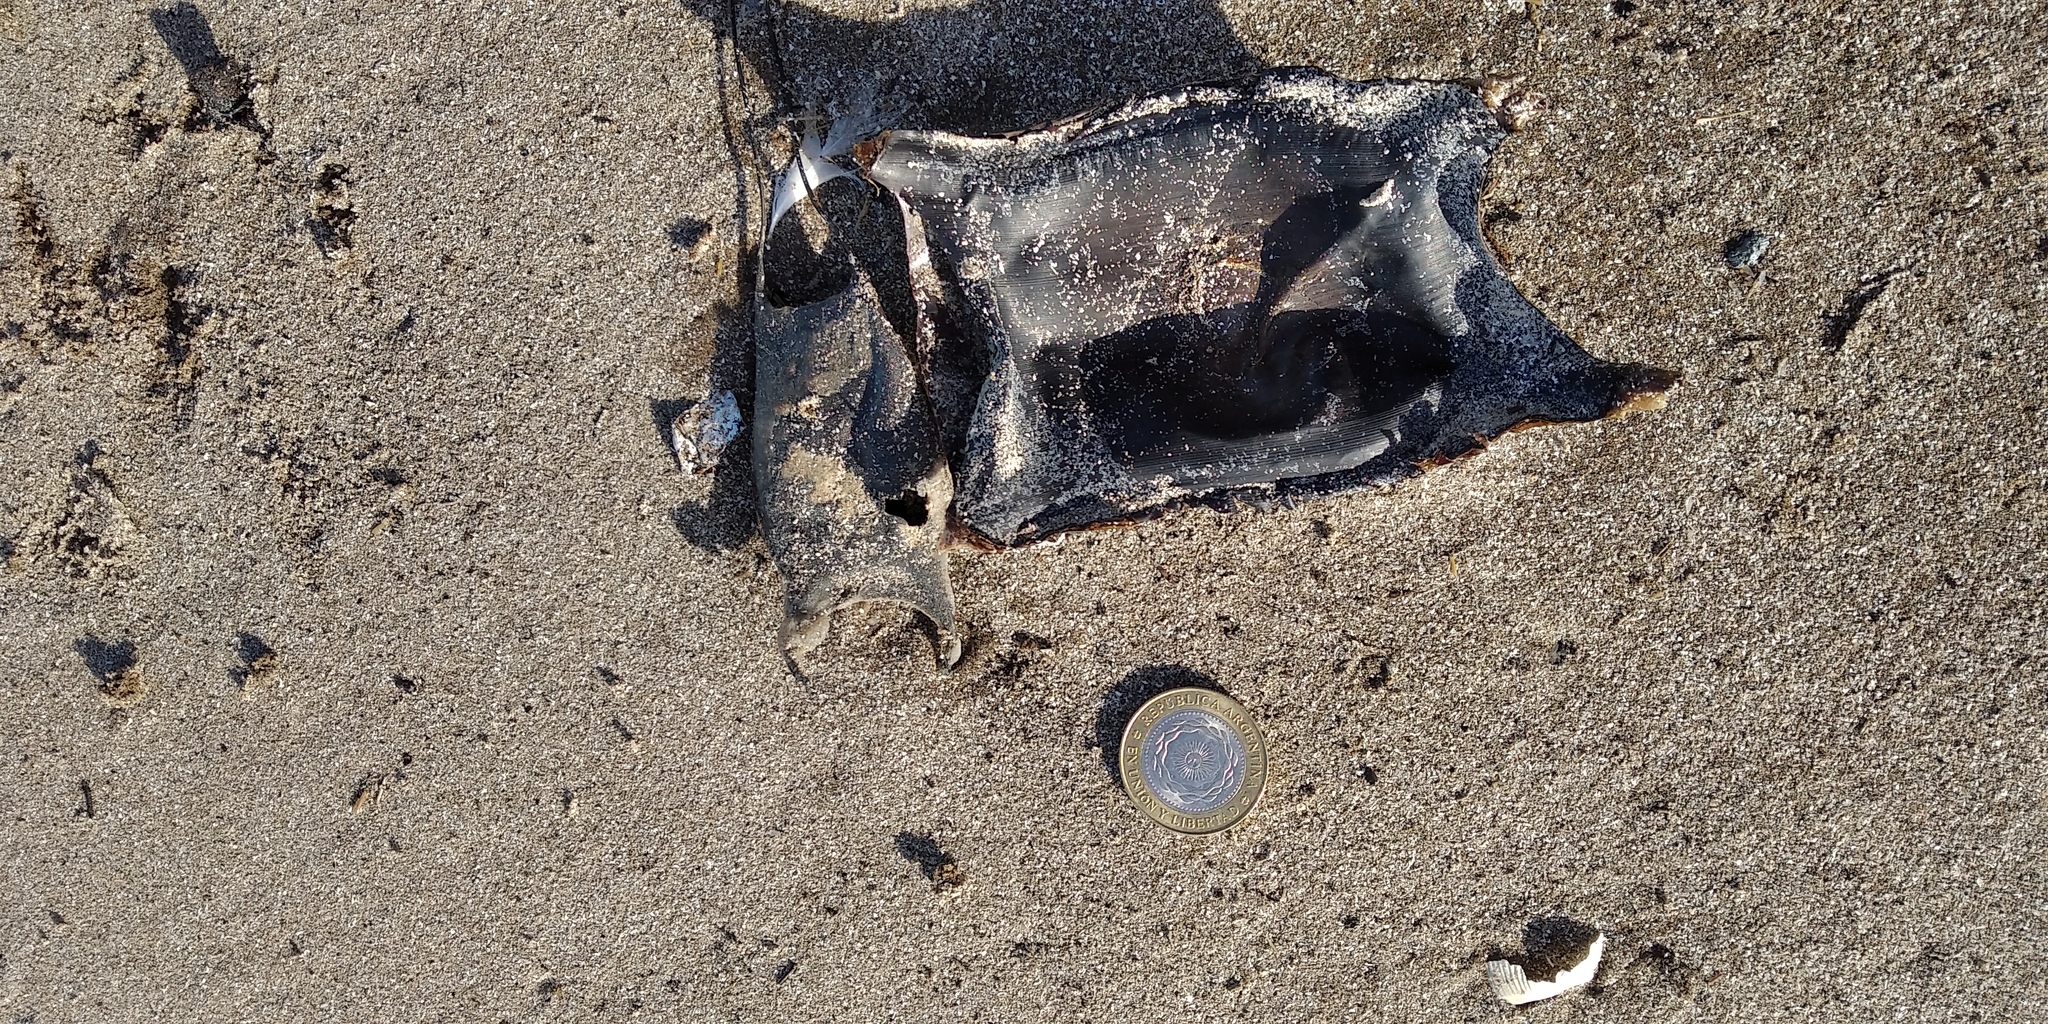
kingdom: Animalia
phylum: Chordata
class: Elasmobranchii
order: Rajiformes
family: Arhynchobatidae
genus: Atlantoraja
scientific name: Atlantoraja castelnaui
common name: Spotback skate
